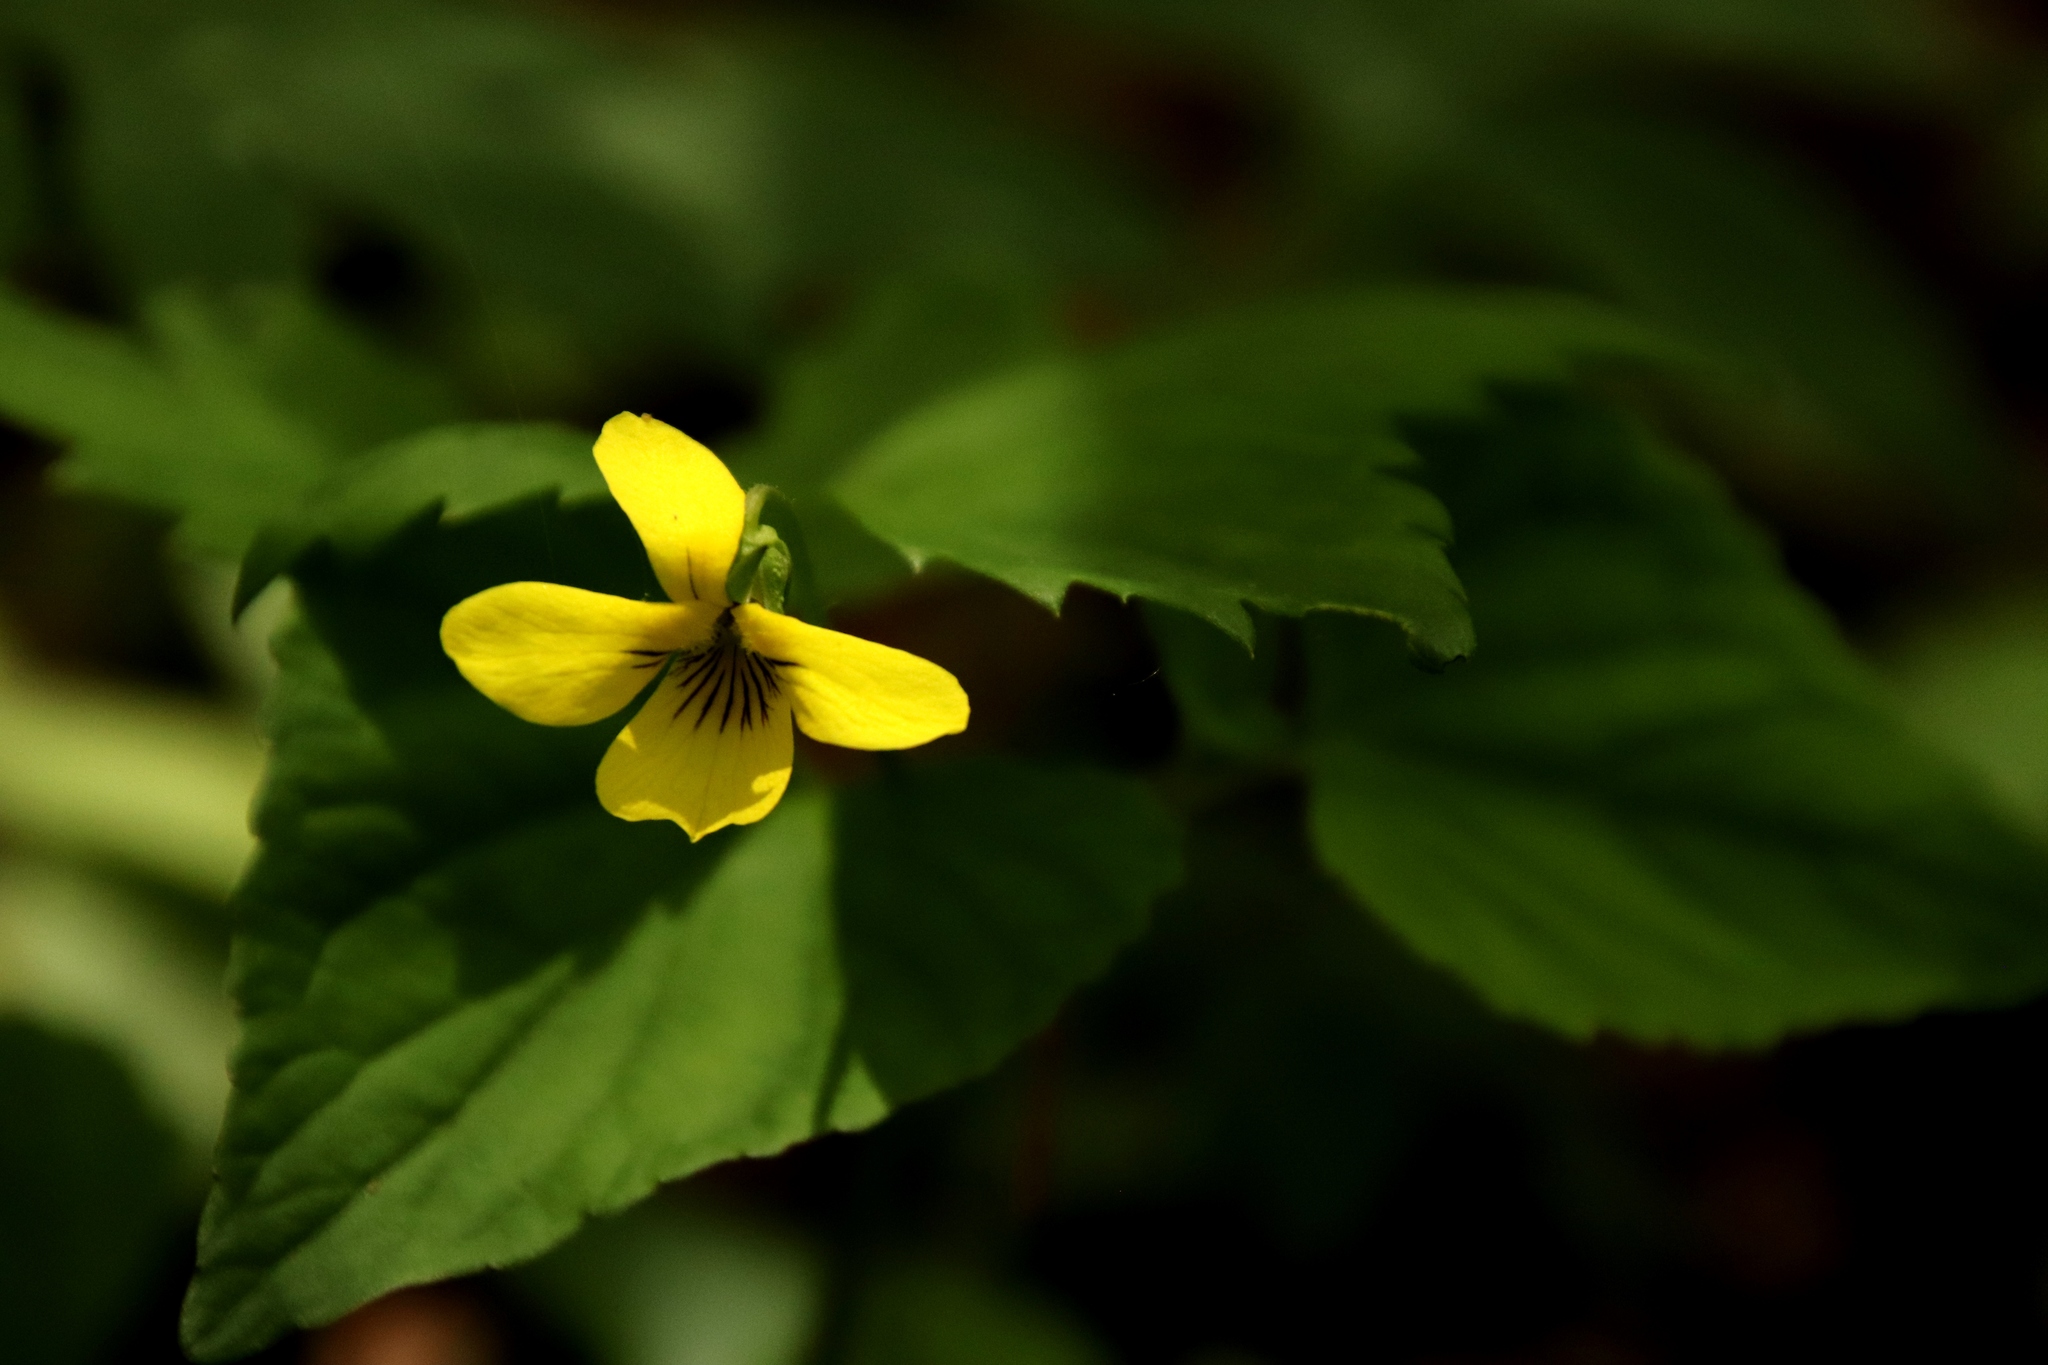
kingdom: Plantae
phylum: Tracheophyta
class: Magnoliopsida
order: Malpighiales
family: Violaceae
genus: Viola
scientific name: Viola eriocarpa
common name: Smooth yellow violet
